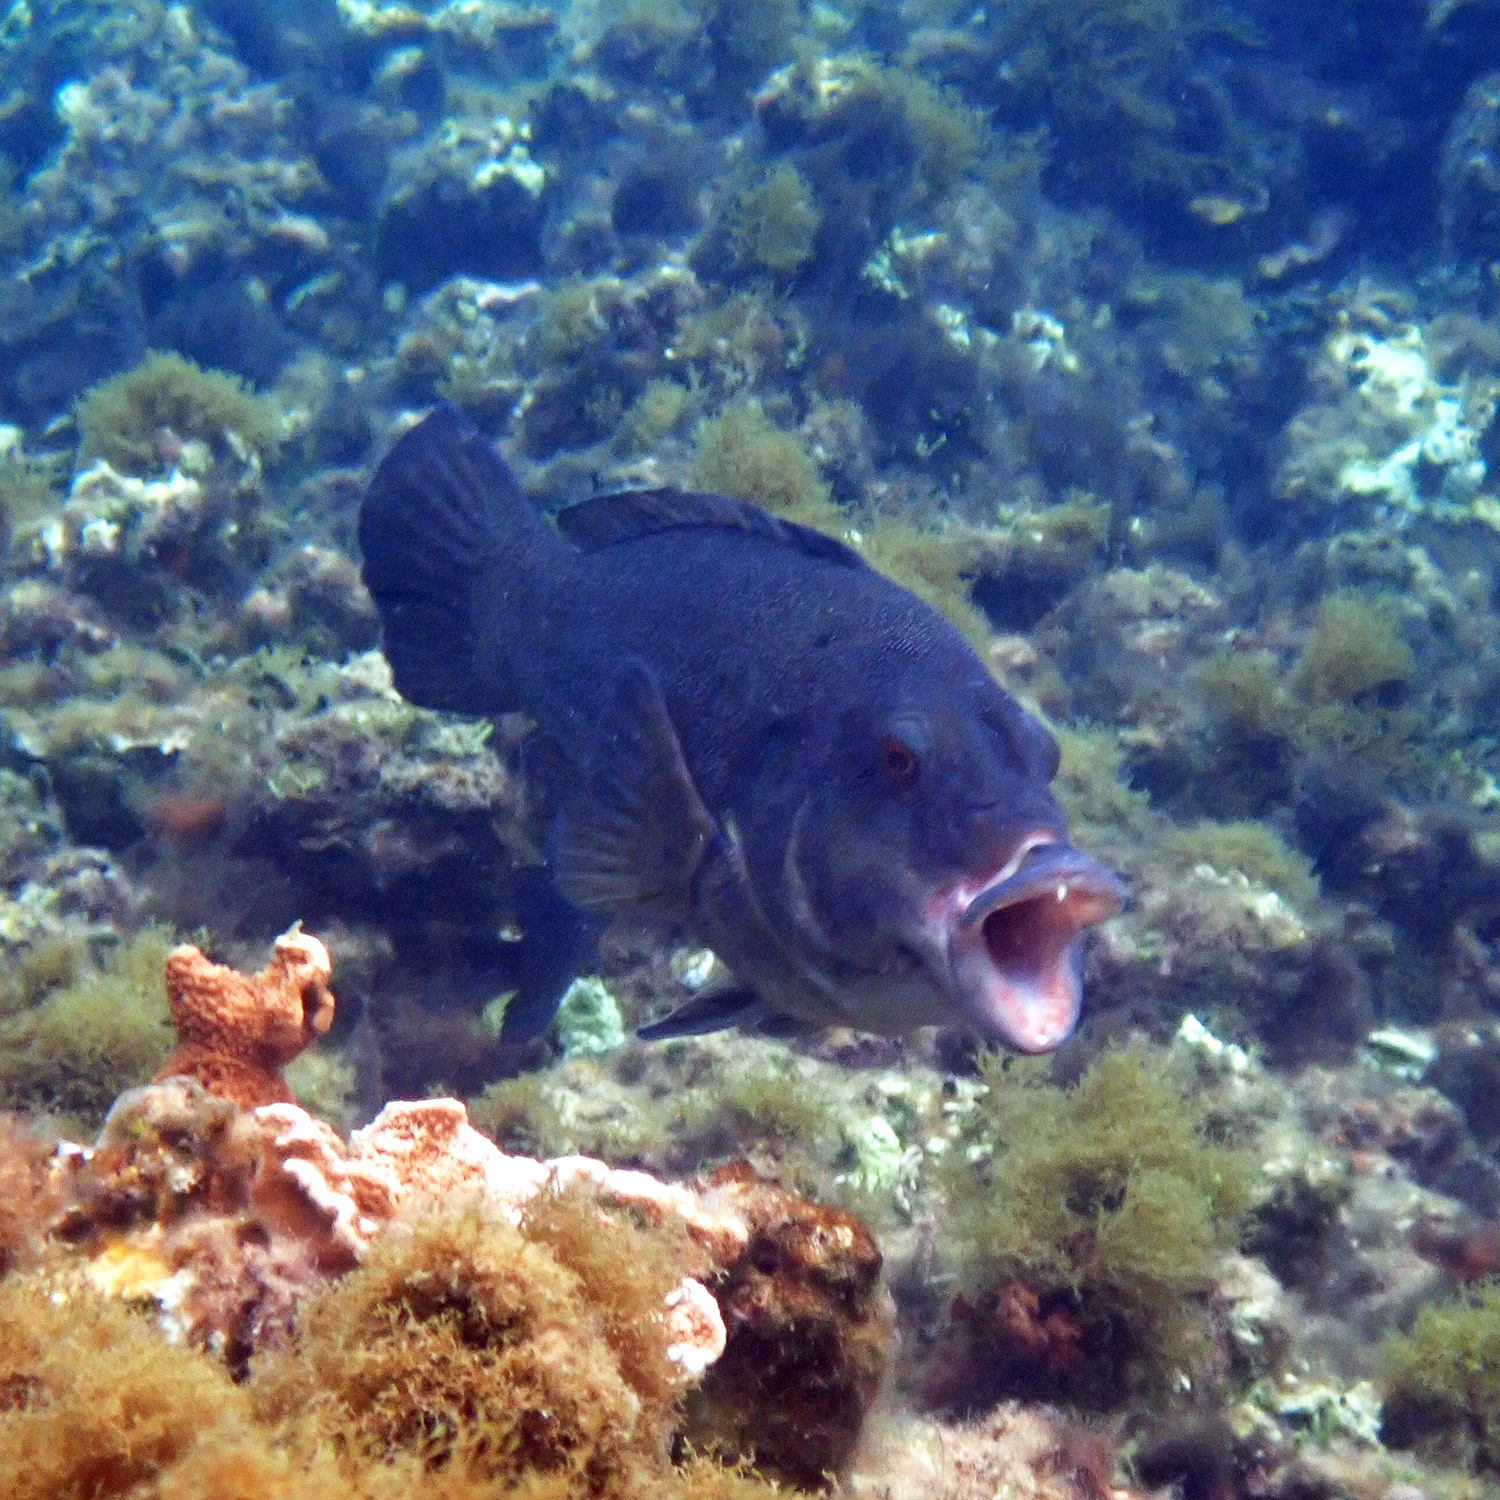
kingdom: Animalia
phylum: Chordata
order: Perciformes
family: Labridae
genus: Notolabrus
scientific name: Notolabrus inscriptus
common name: Green wrasse
